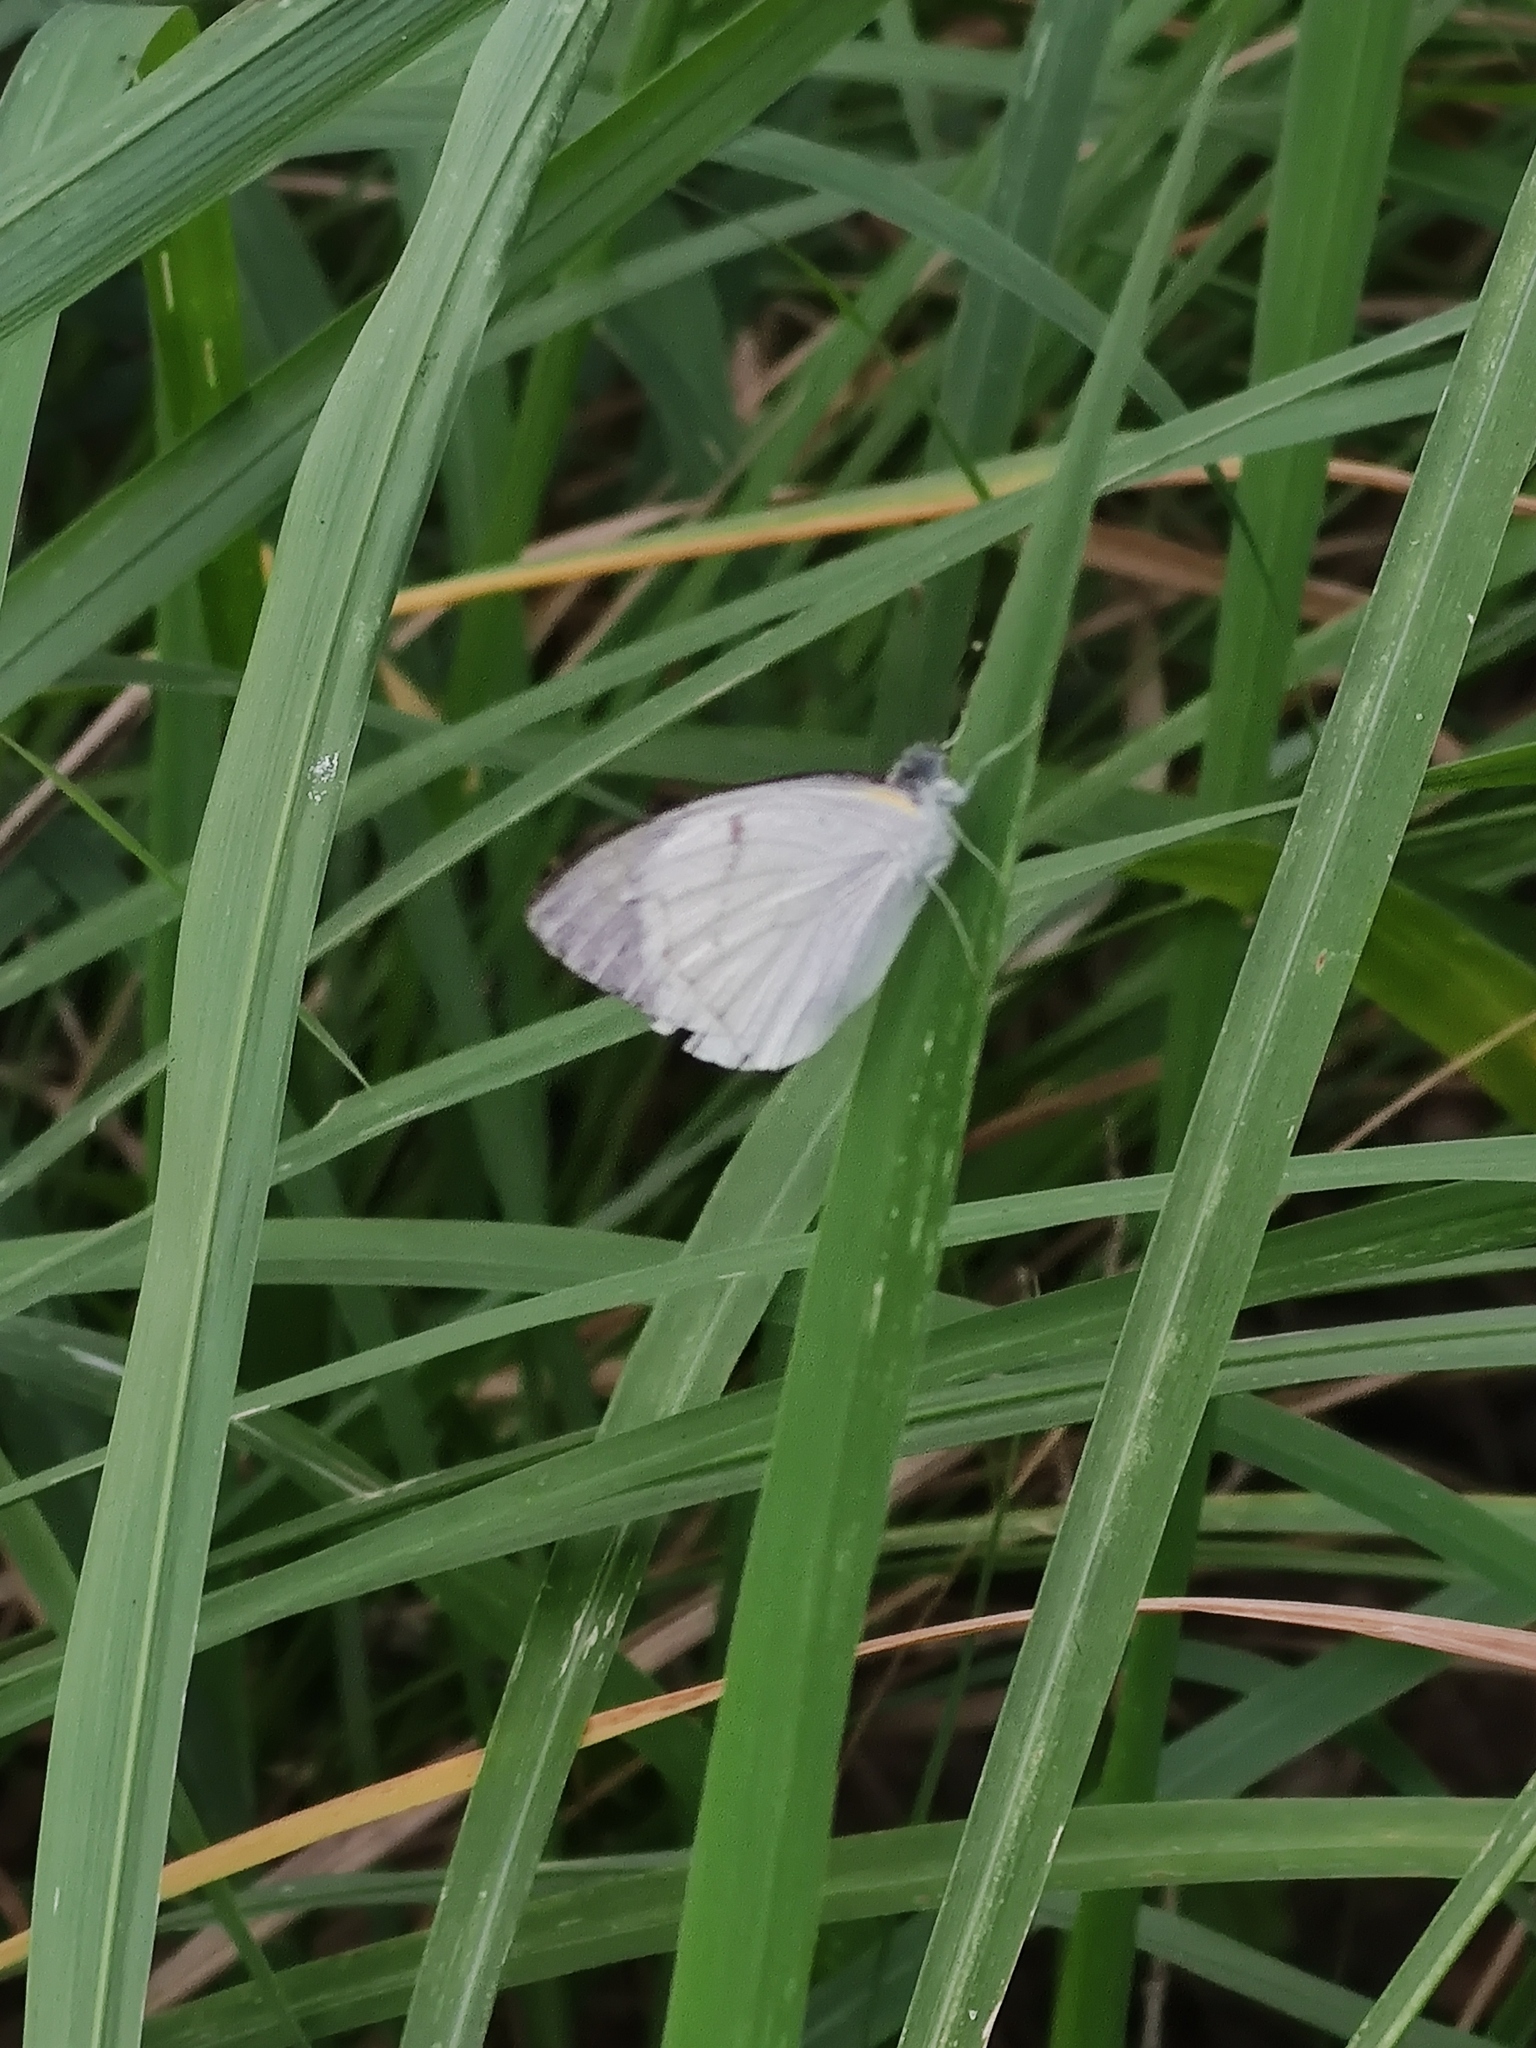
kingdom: Animalia
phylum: Arthropoda
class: Insecta
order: Lepidoptera
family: Pieridae
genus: Colotis
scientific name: Colotis ione
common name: Bushveld purple tip
